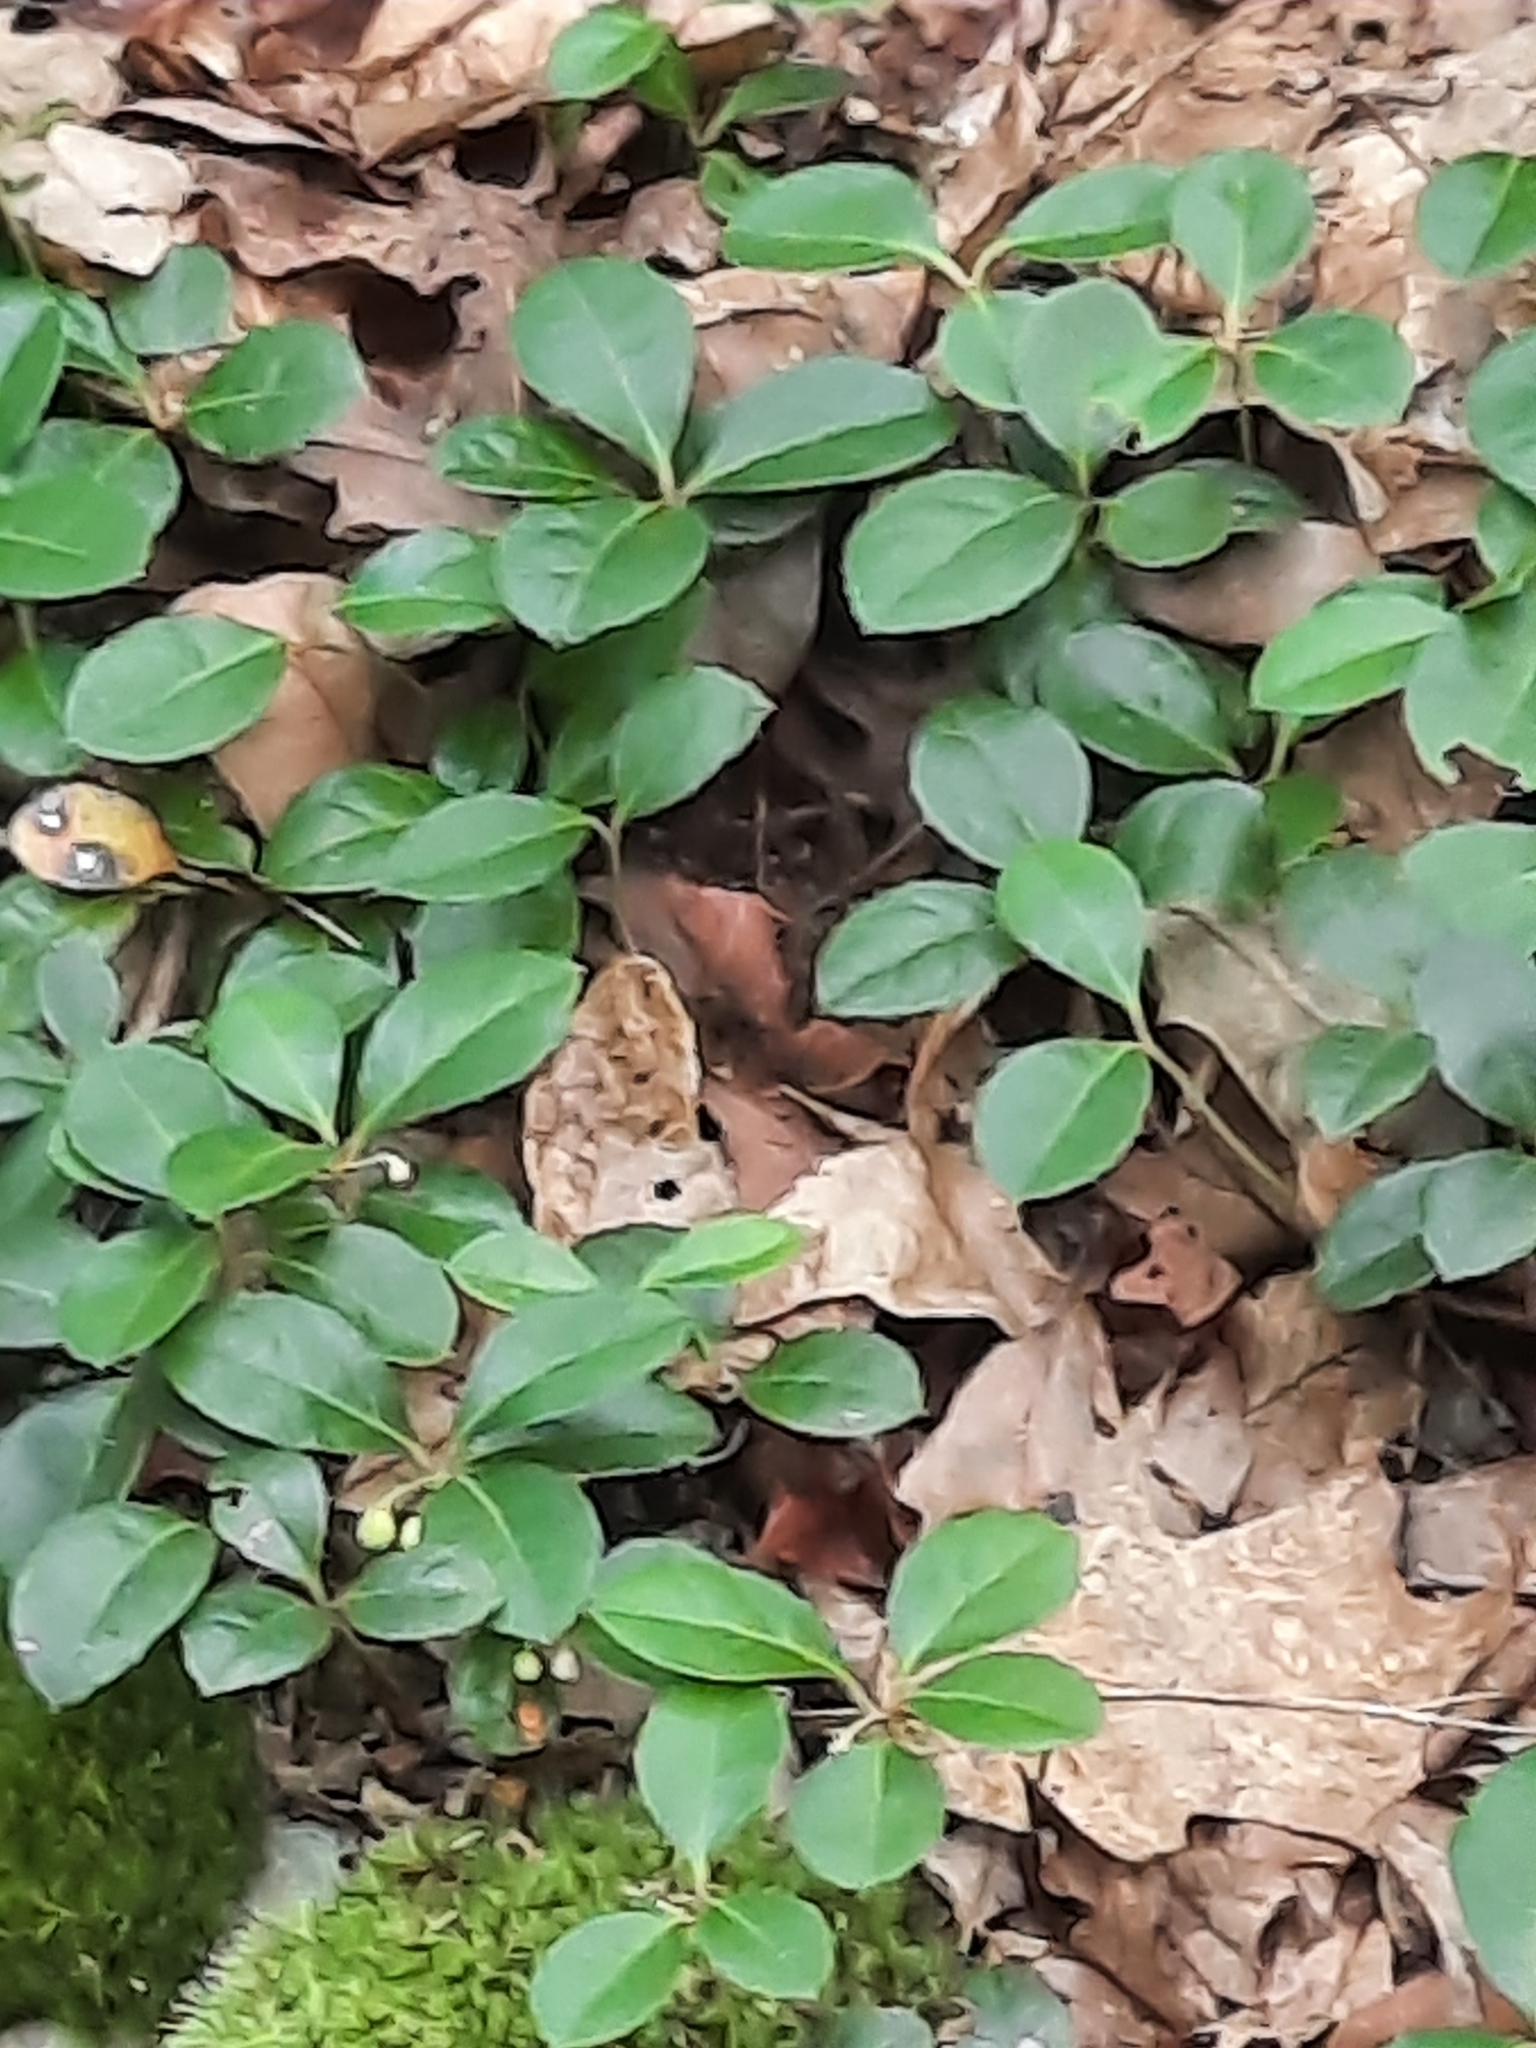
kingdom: Plantae
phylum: Tracheophyta
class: Magnoliopsida
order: Ericales
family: Ericaceae
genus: Gaultheria
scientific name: Gaultheria procumbens
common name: Checkerberry
